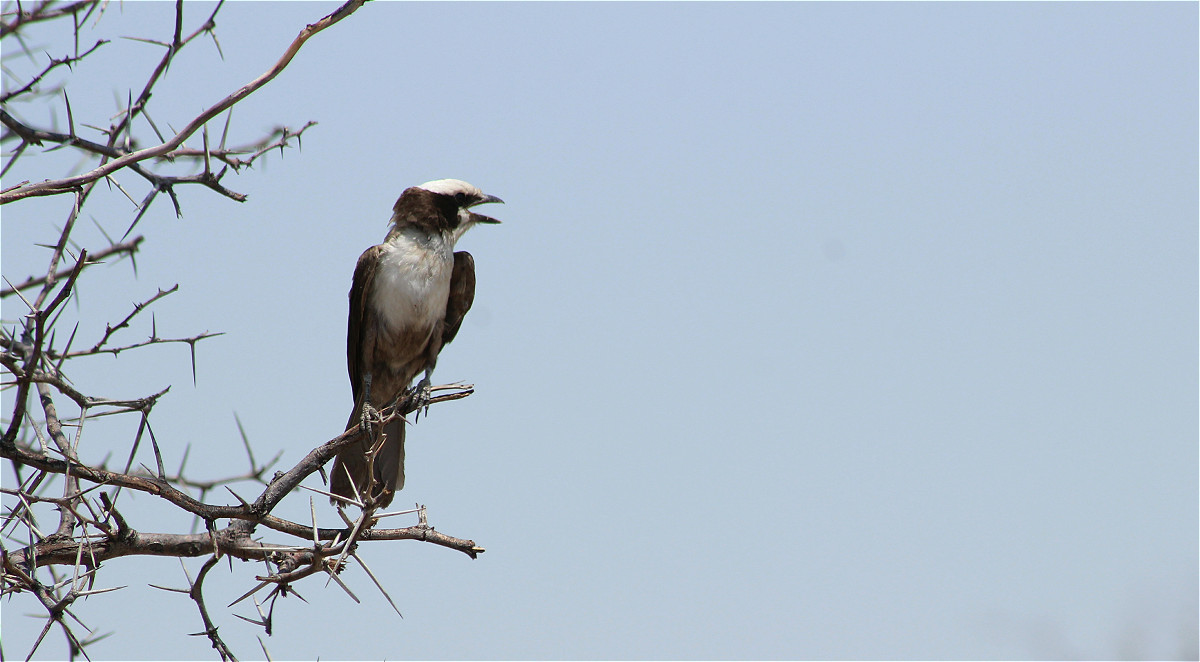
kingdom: Animalia
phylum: Chordata
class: Aves
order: Passeriformes
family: Laniidae
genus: Eurocephalus
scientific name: Eurocephalus anguitimens
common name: Southern white-crowned shrike
